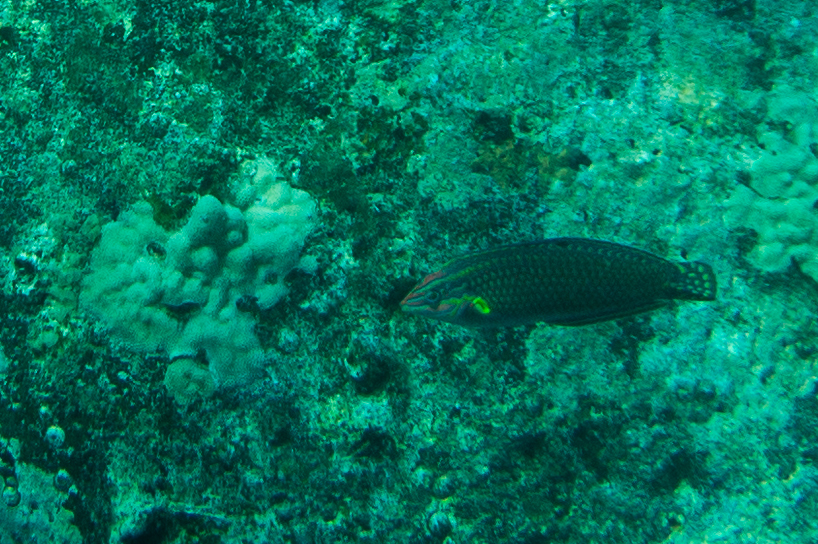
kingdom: Animalia
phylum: Chordata
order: Perciformes
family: Labridae
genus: Halichoeres
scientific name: Halichoeres ornatissimus
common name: Ornamented wrasse
